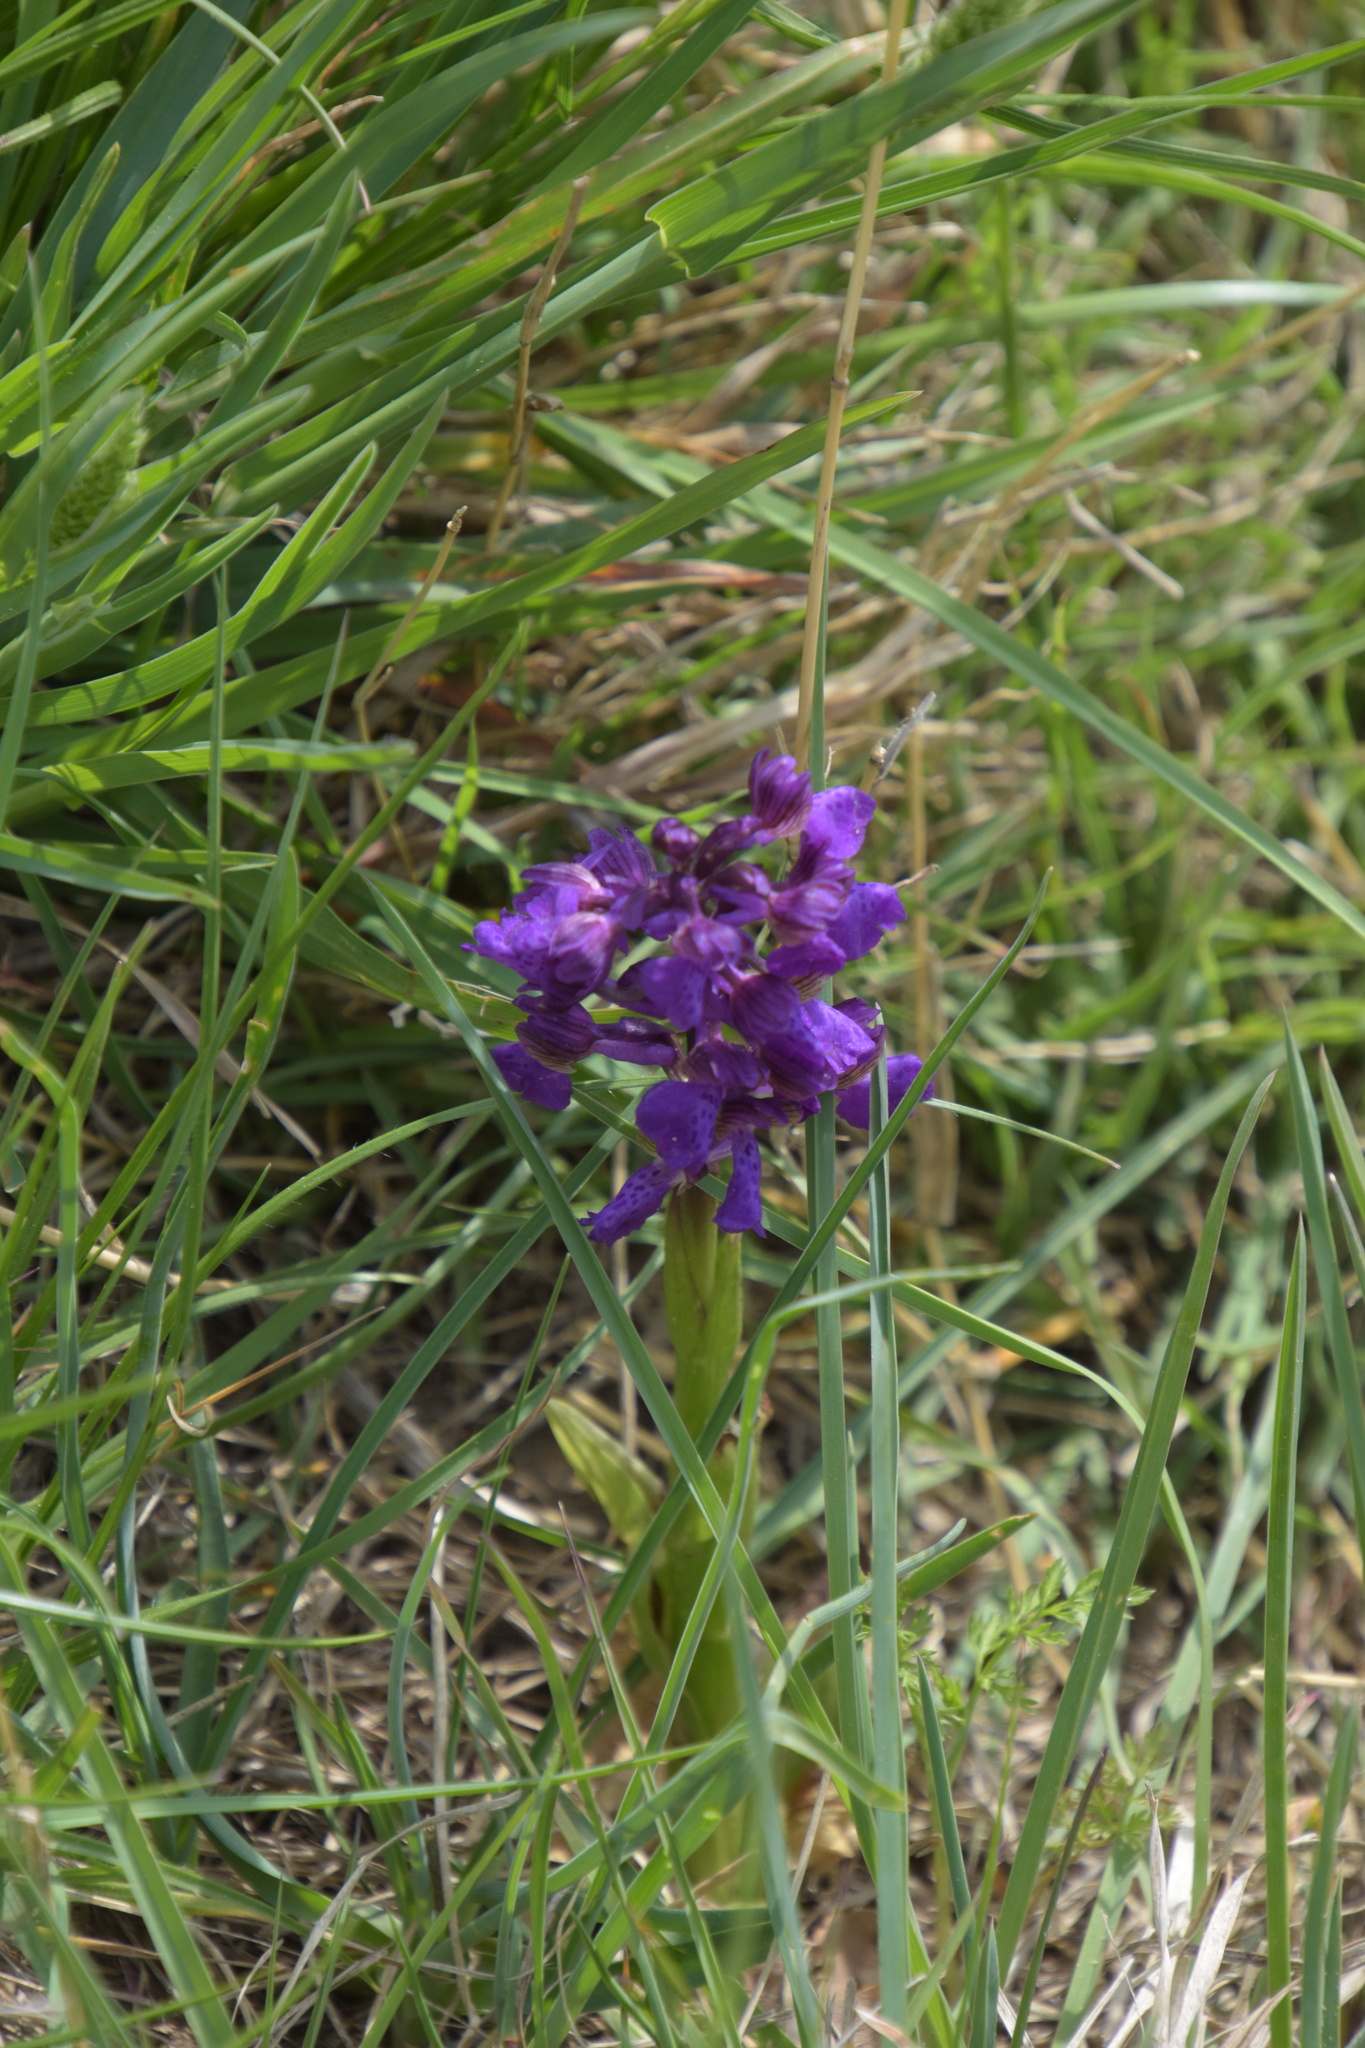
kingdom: Plantae
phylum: Tracheophyta
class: Liliopsida
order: Asparagales
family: Orchidaceae
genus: Anacamptis
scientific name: Anacamptis morio
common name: Green-winged orchid
